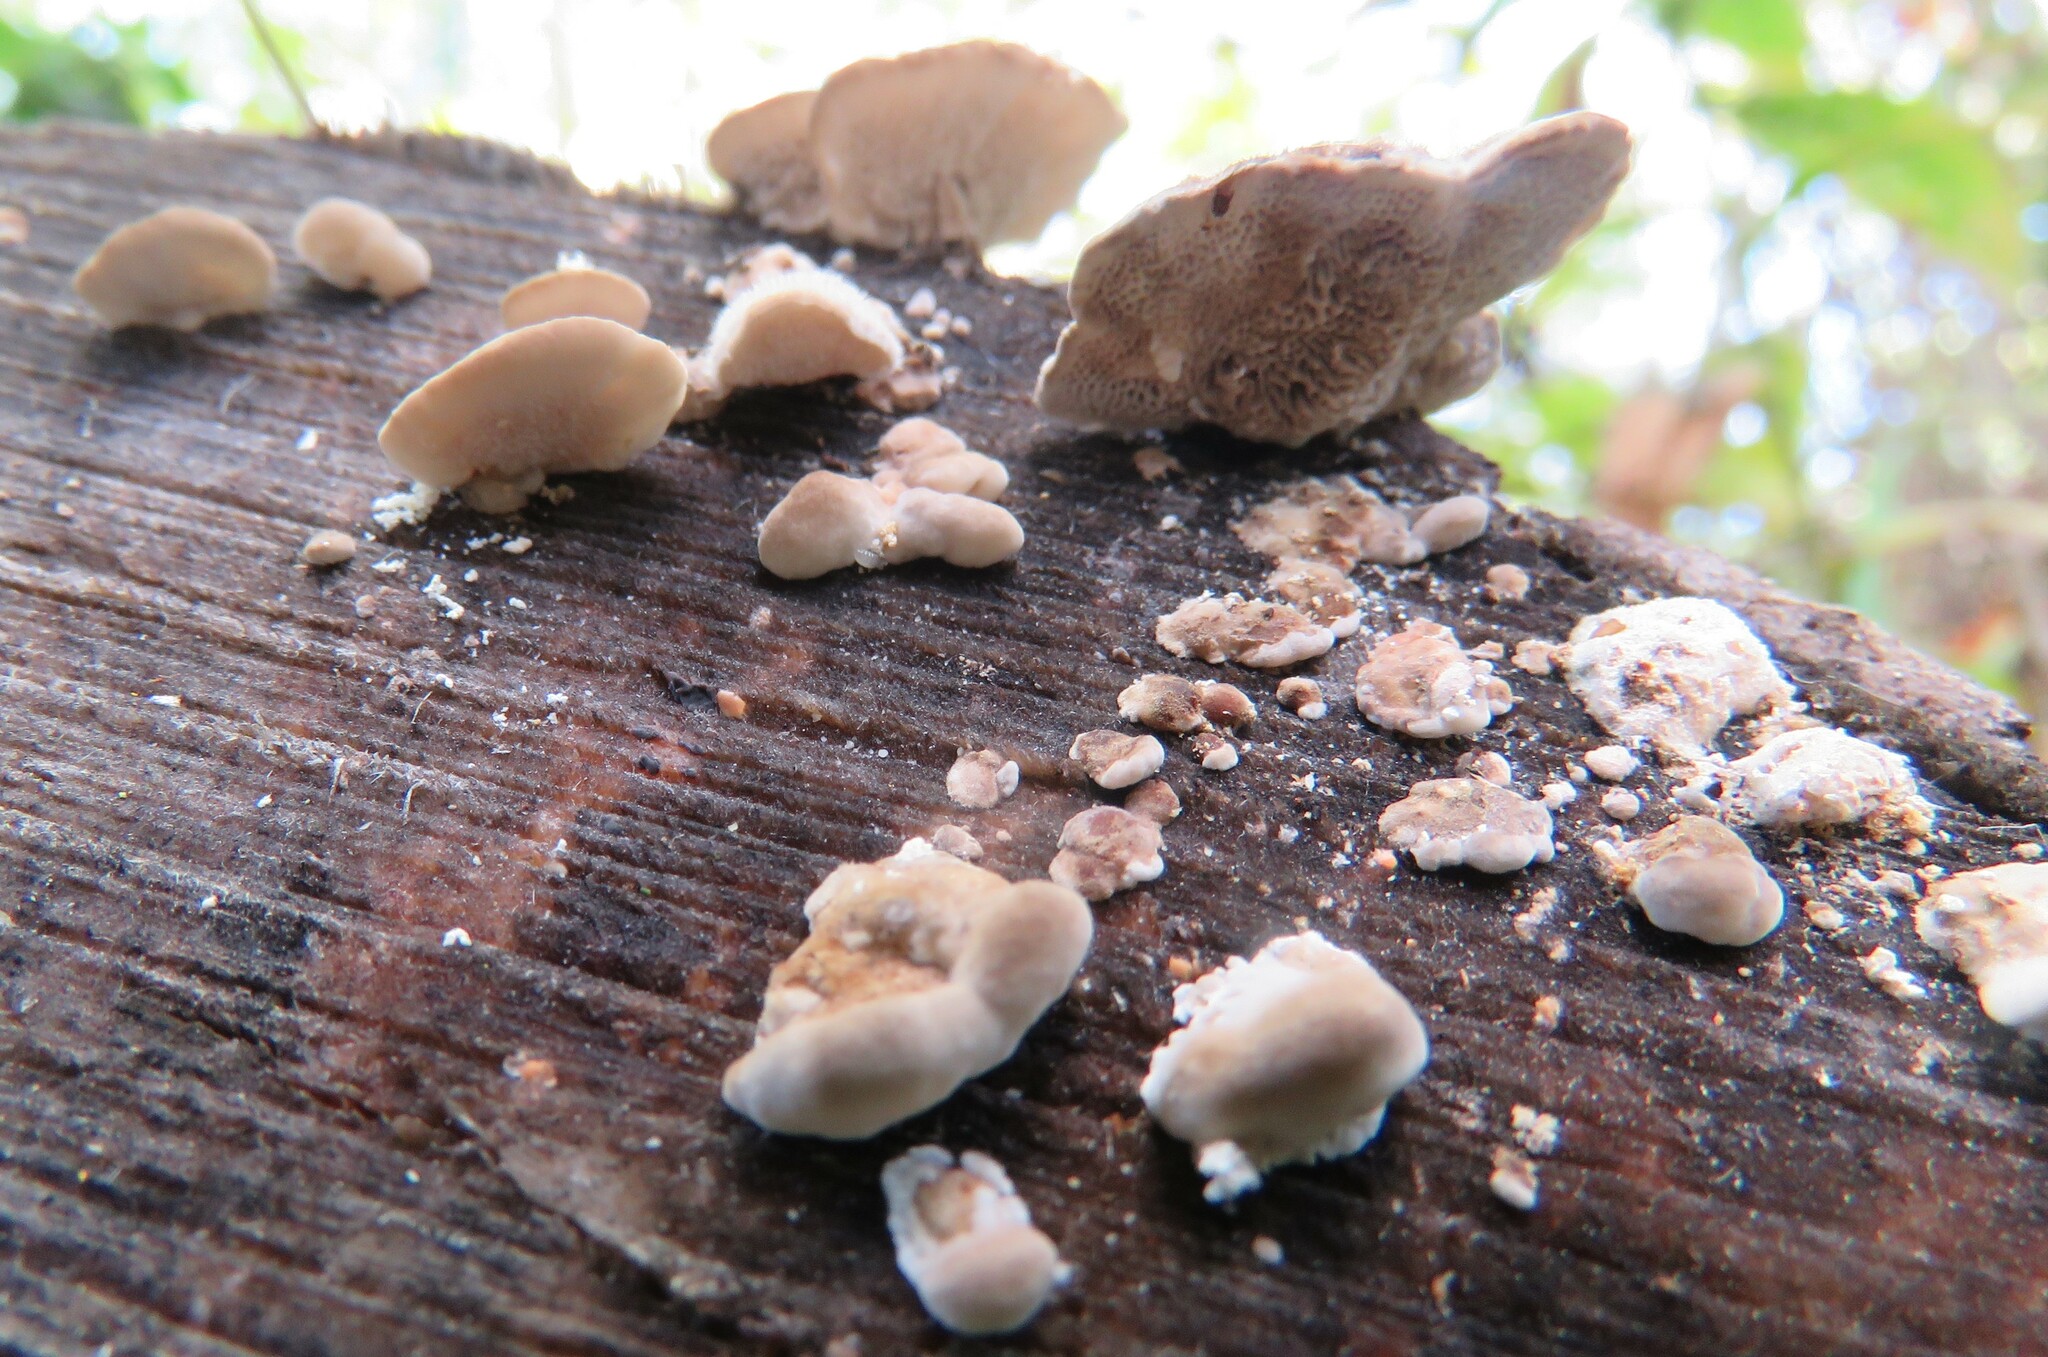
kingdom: Fungi
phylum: Basidiomycota
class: Agaricomycetes
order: Polyporales
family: Polyporaceae
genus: Trametes
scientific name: Trametes ochracea
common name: Ochre bracket
